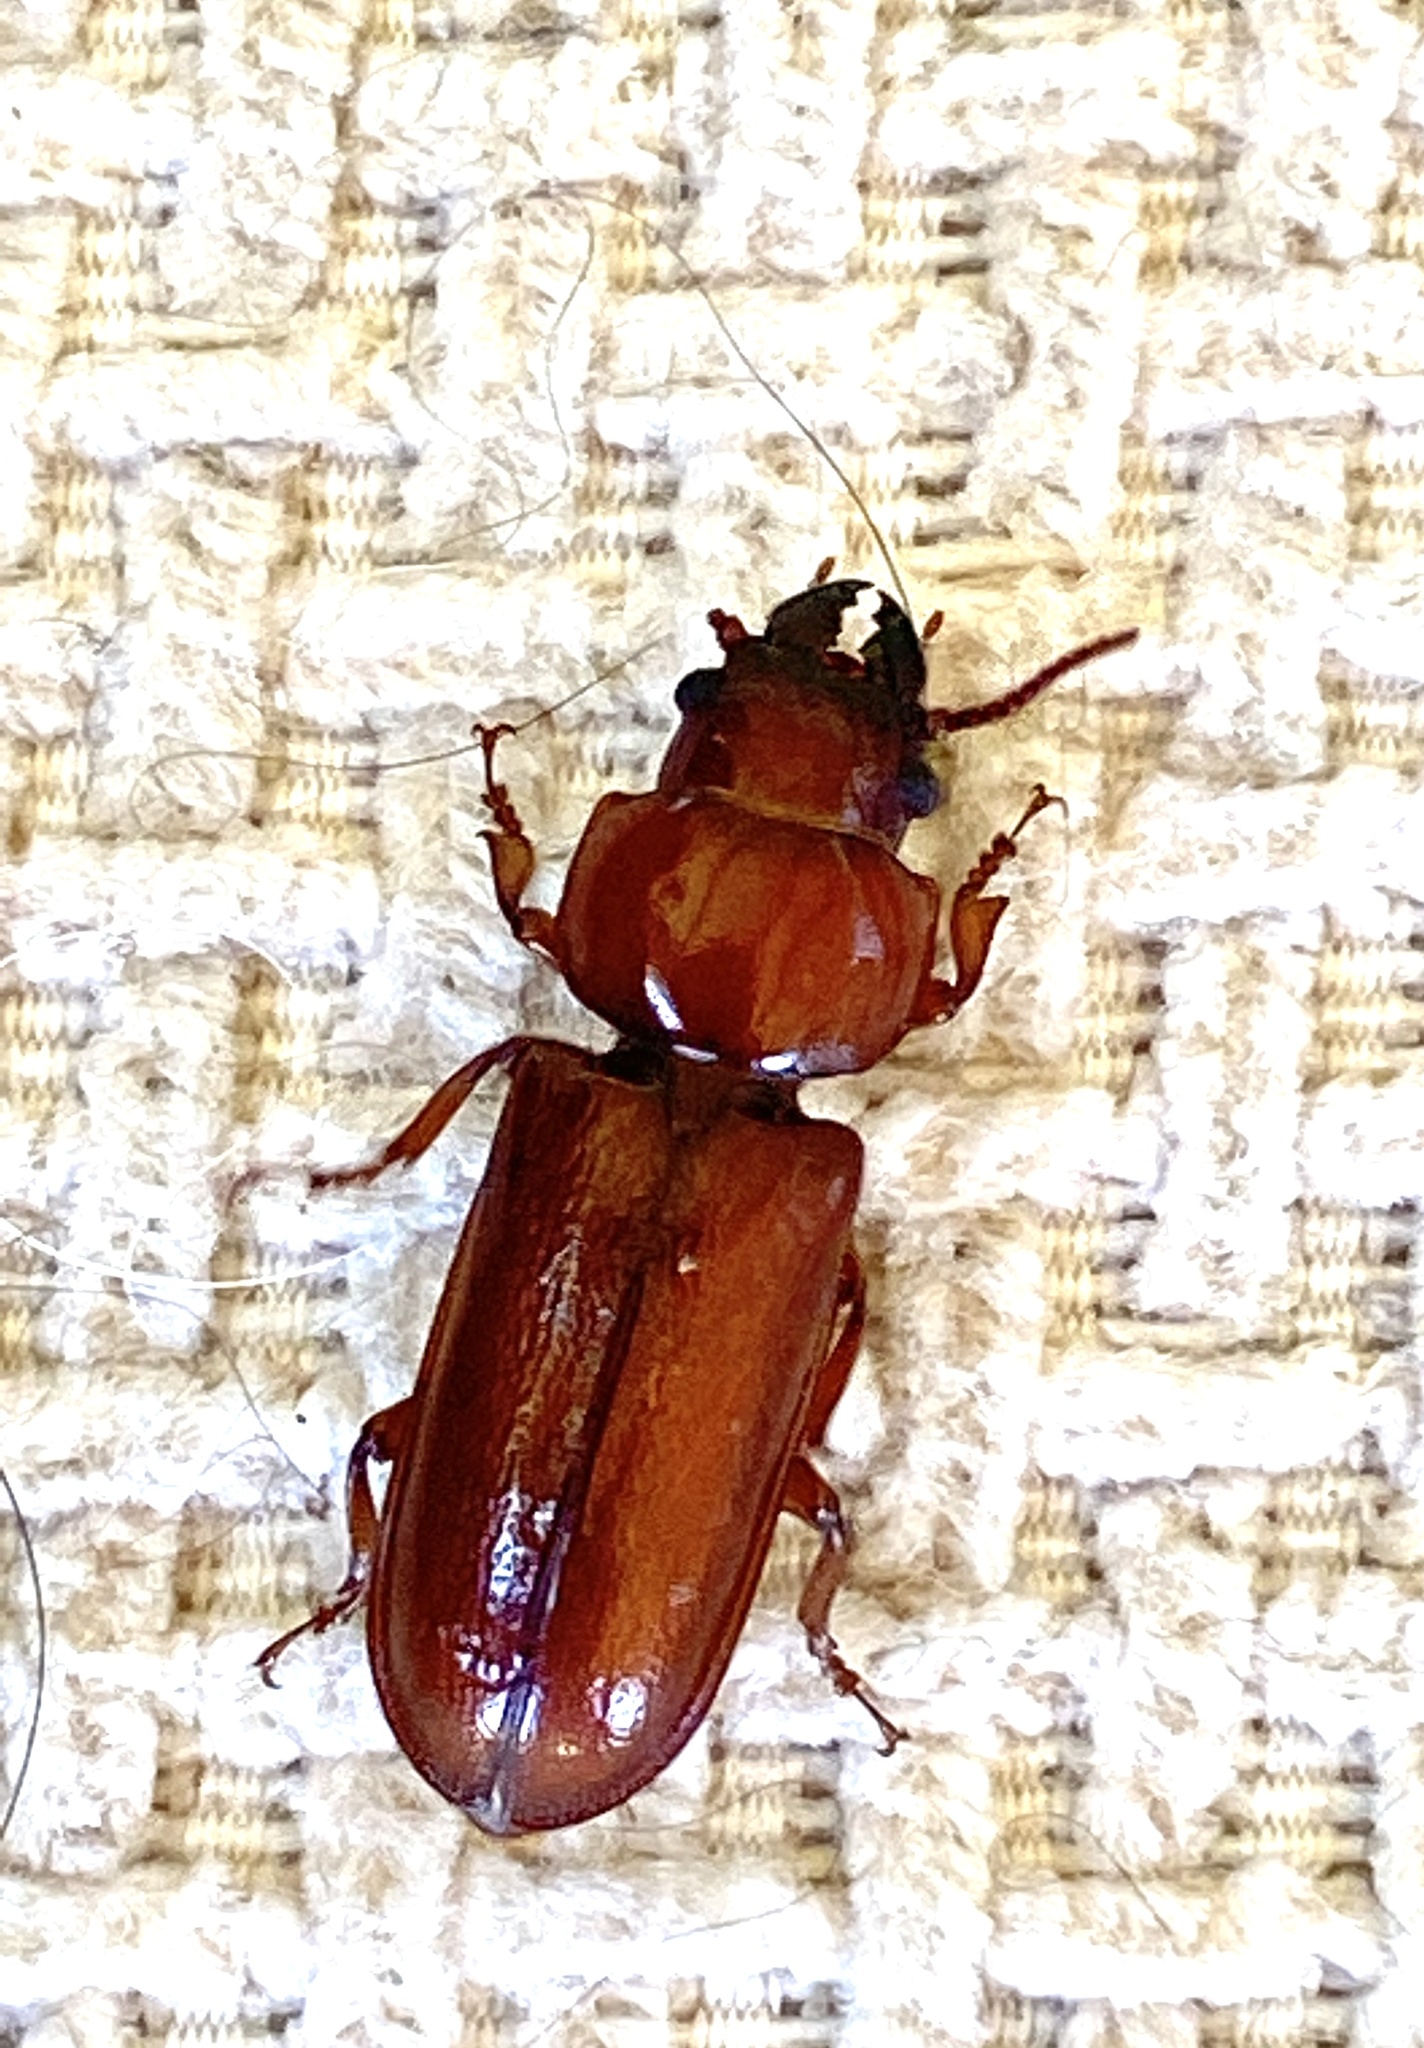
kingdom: Animalia
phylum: Arthropoda
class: Insecta
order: Coleoptera
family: Cerambycidae
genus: Meridiandra
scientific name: Meridiandra capicola
